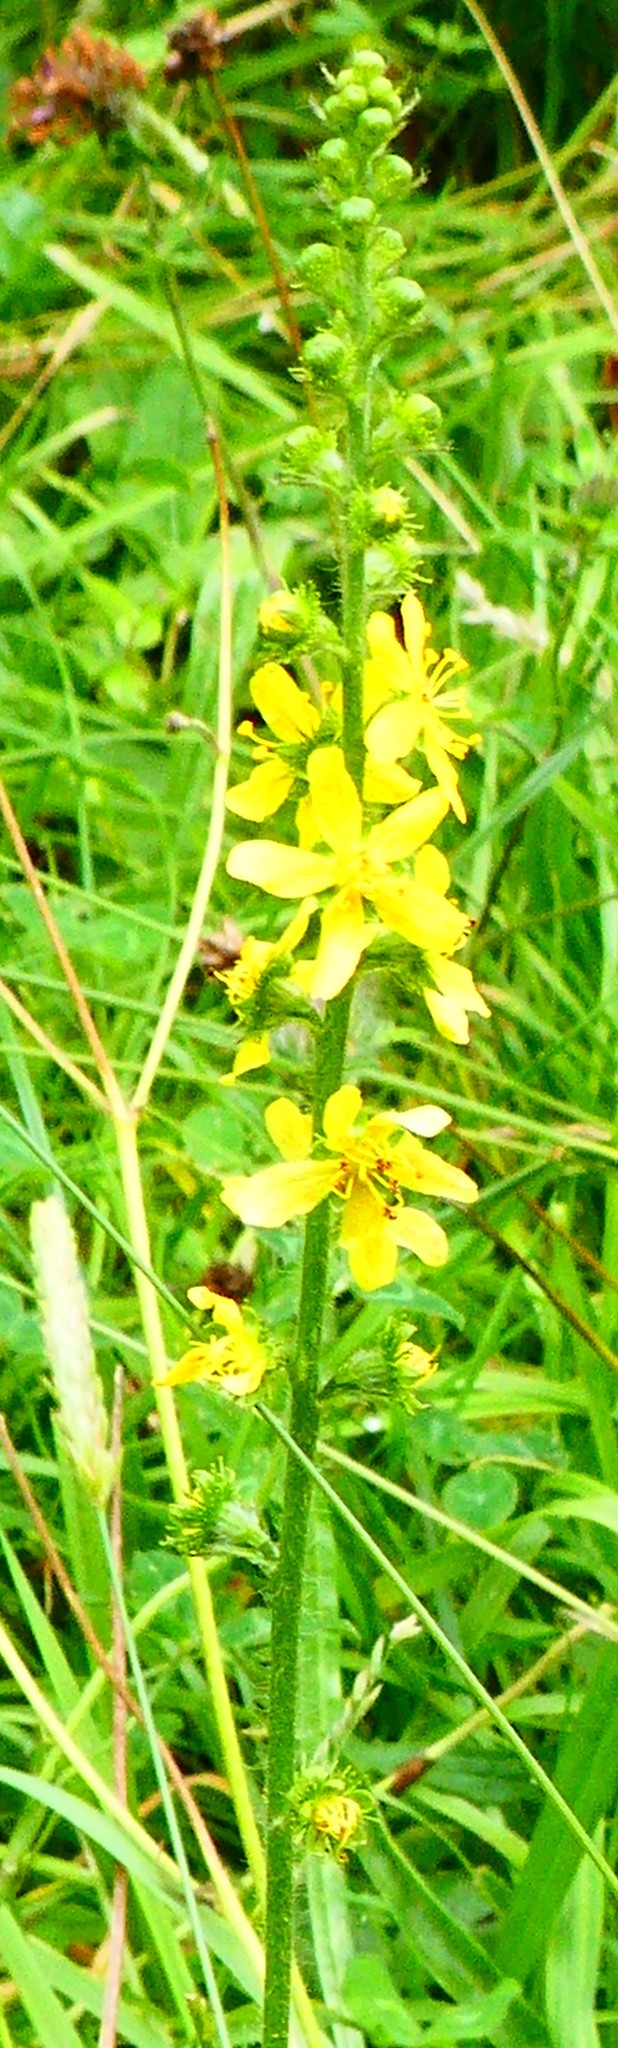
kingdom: Plantae
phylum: Tracheophyta
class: Magnoliopsida
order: Rosales
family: Rosaceae
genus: Agrimonia
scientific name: Agrimonia eupatoria
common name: Agrimony
